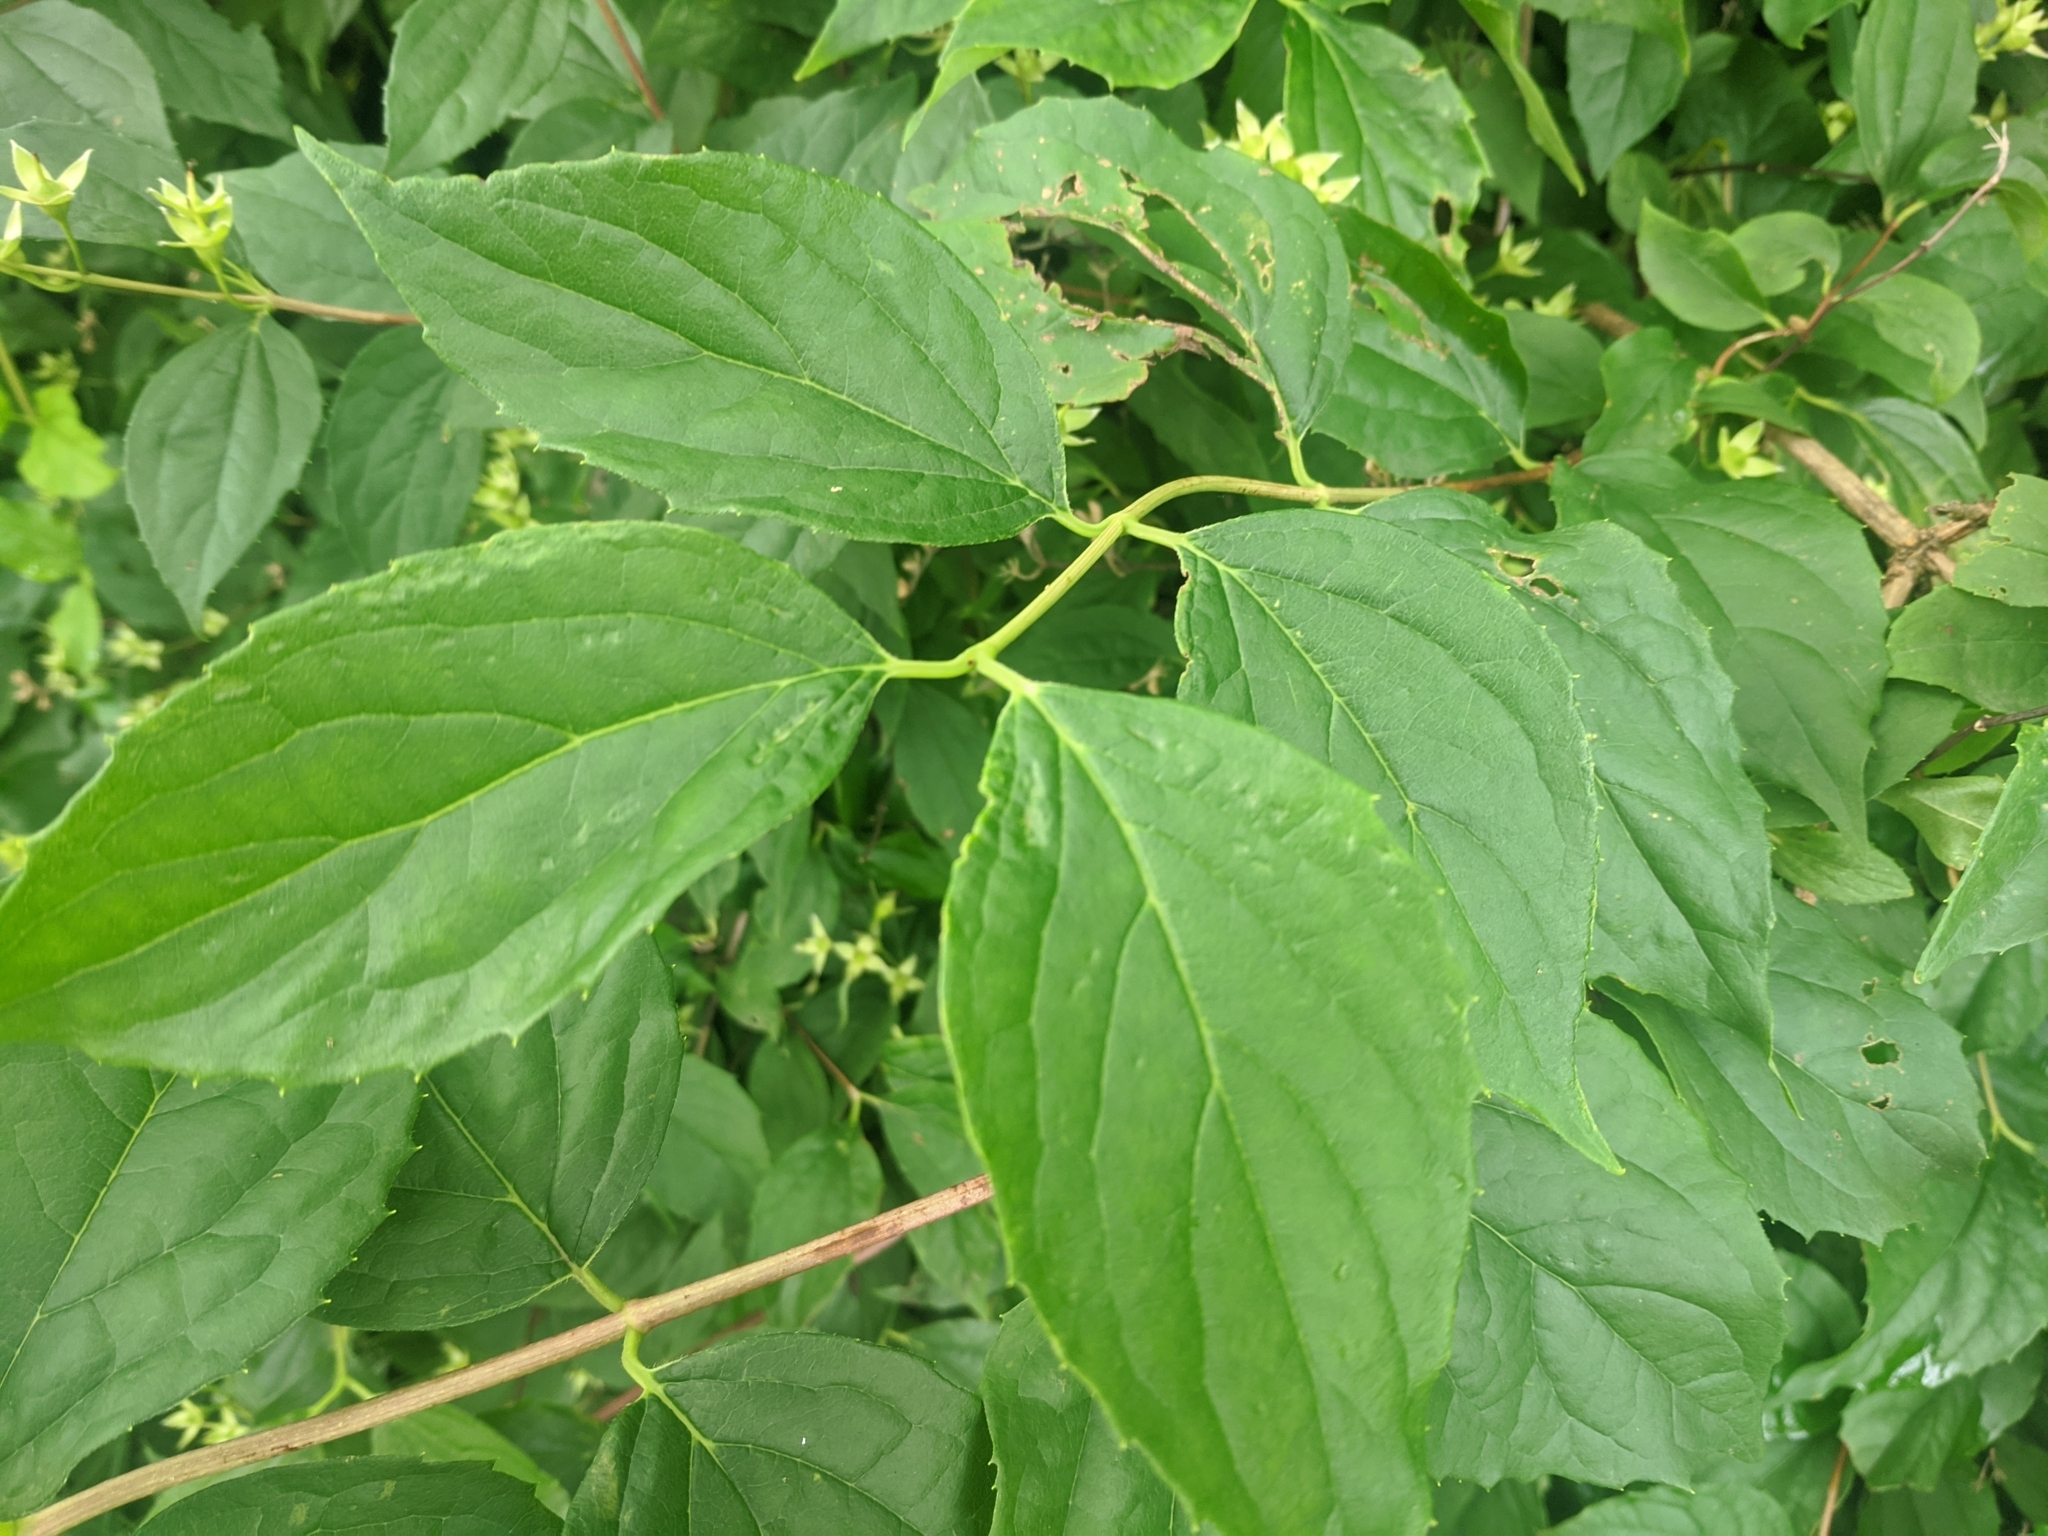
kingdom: Plantae
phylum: Tracheophyta
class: Magnoliopsida
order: Cornales
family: Hydrangeaceae
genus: Philadelphus
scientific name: Philadelphus coronarius
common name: Mock orange
